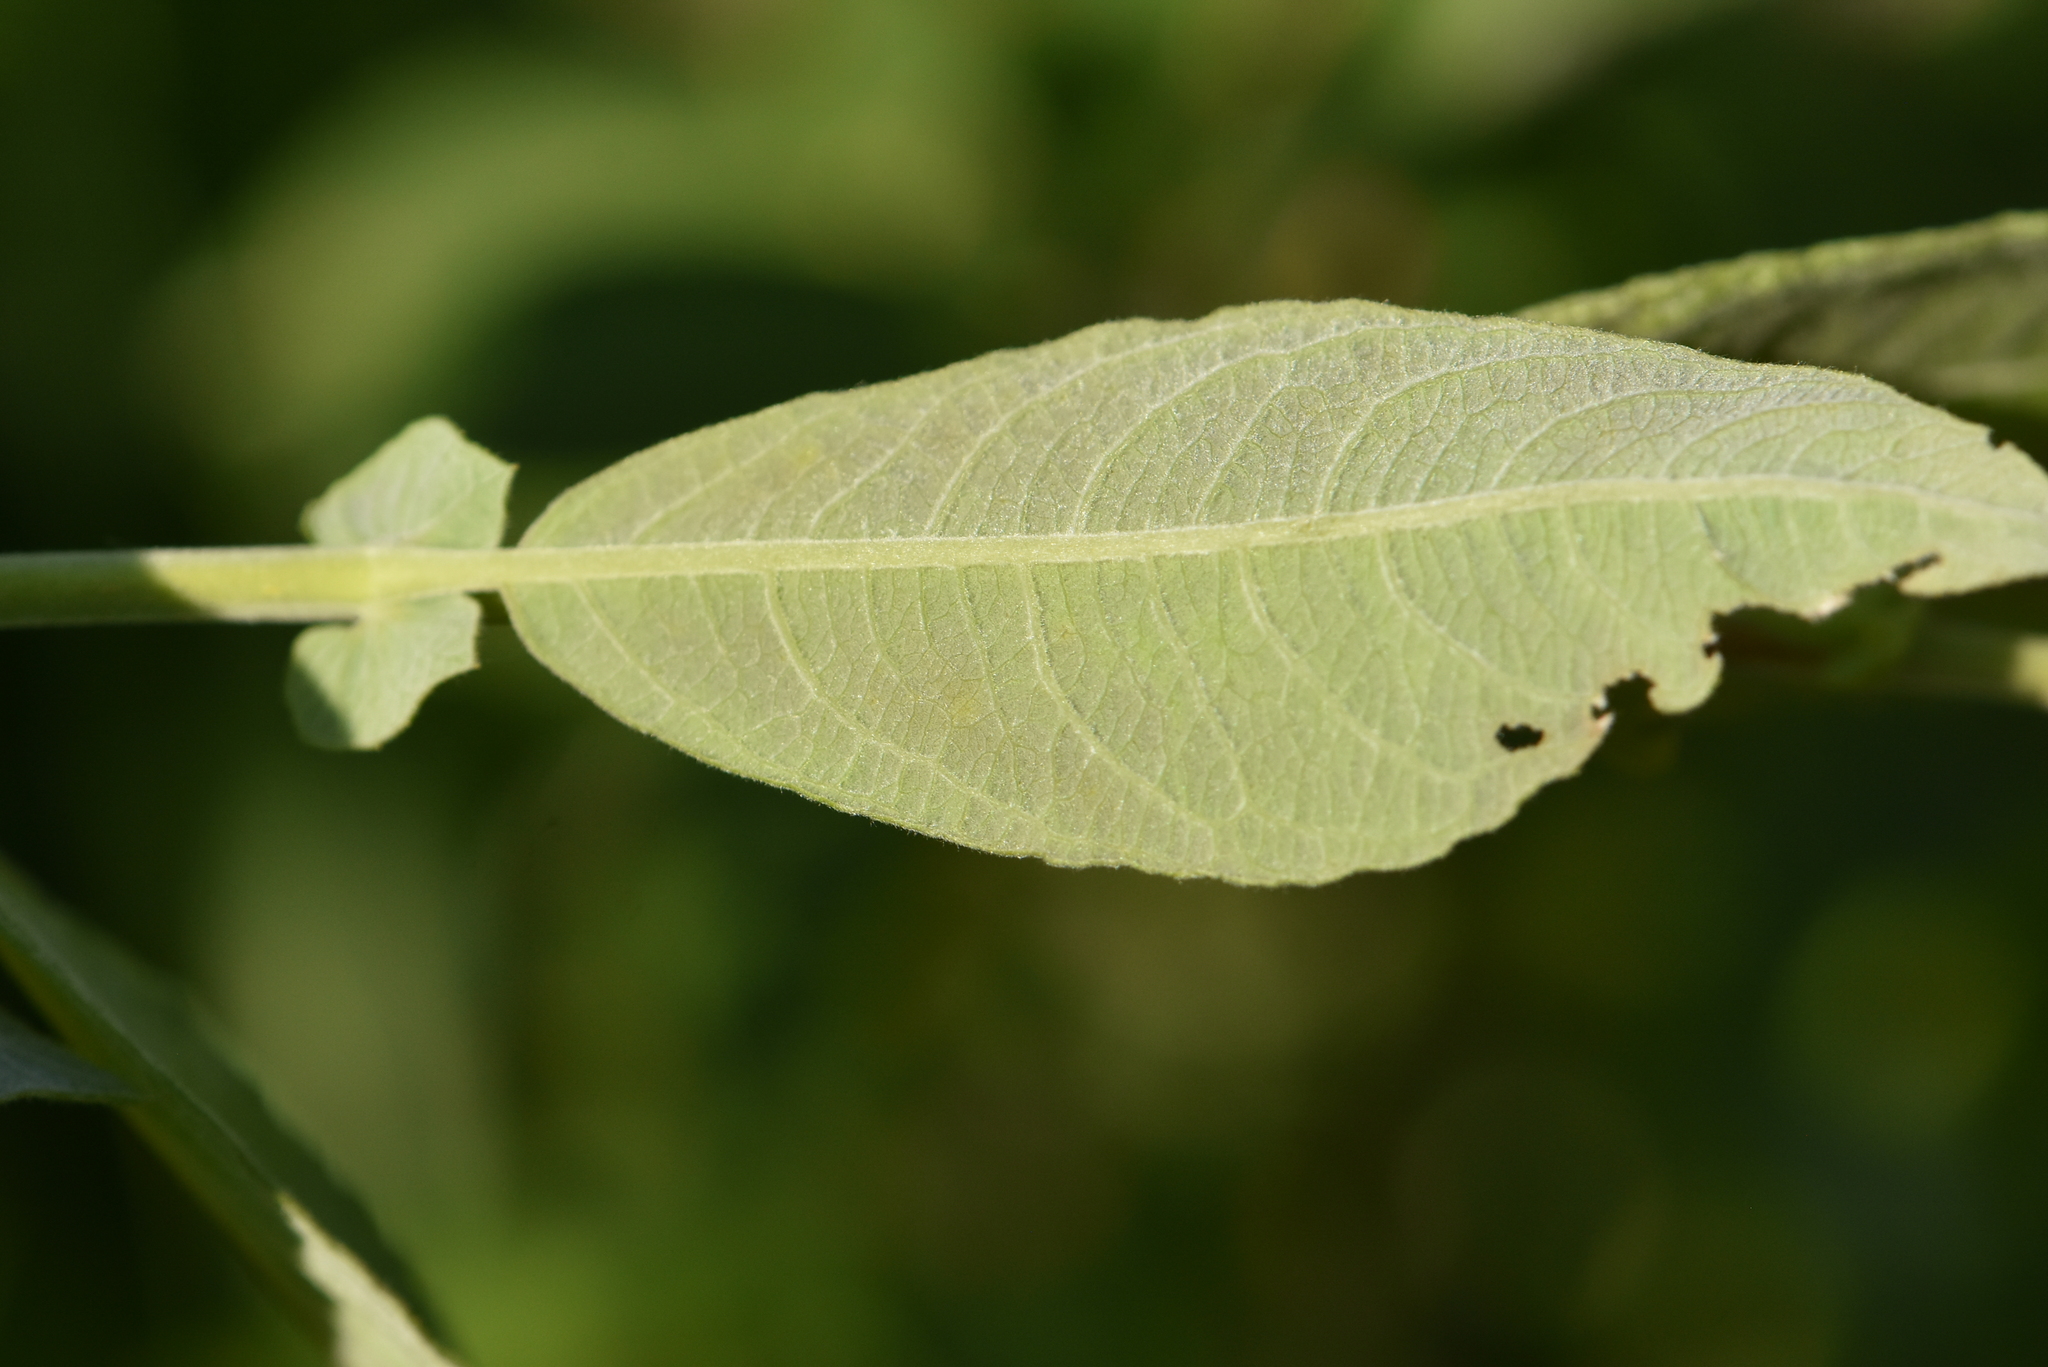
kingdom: Plantae
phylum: Tracheophyta
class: Magnoliopsida
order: Malpighiales
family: Salicaceae
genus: Salix
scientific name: Salix cinerea
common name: Common sallow
